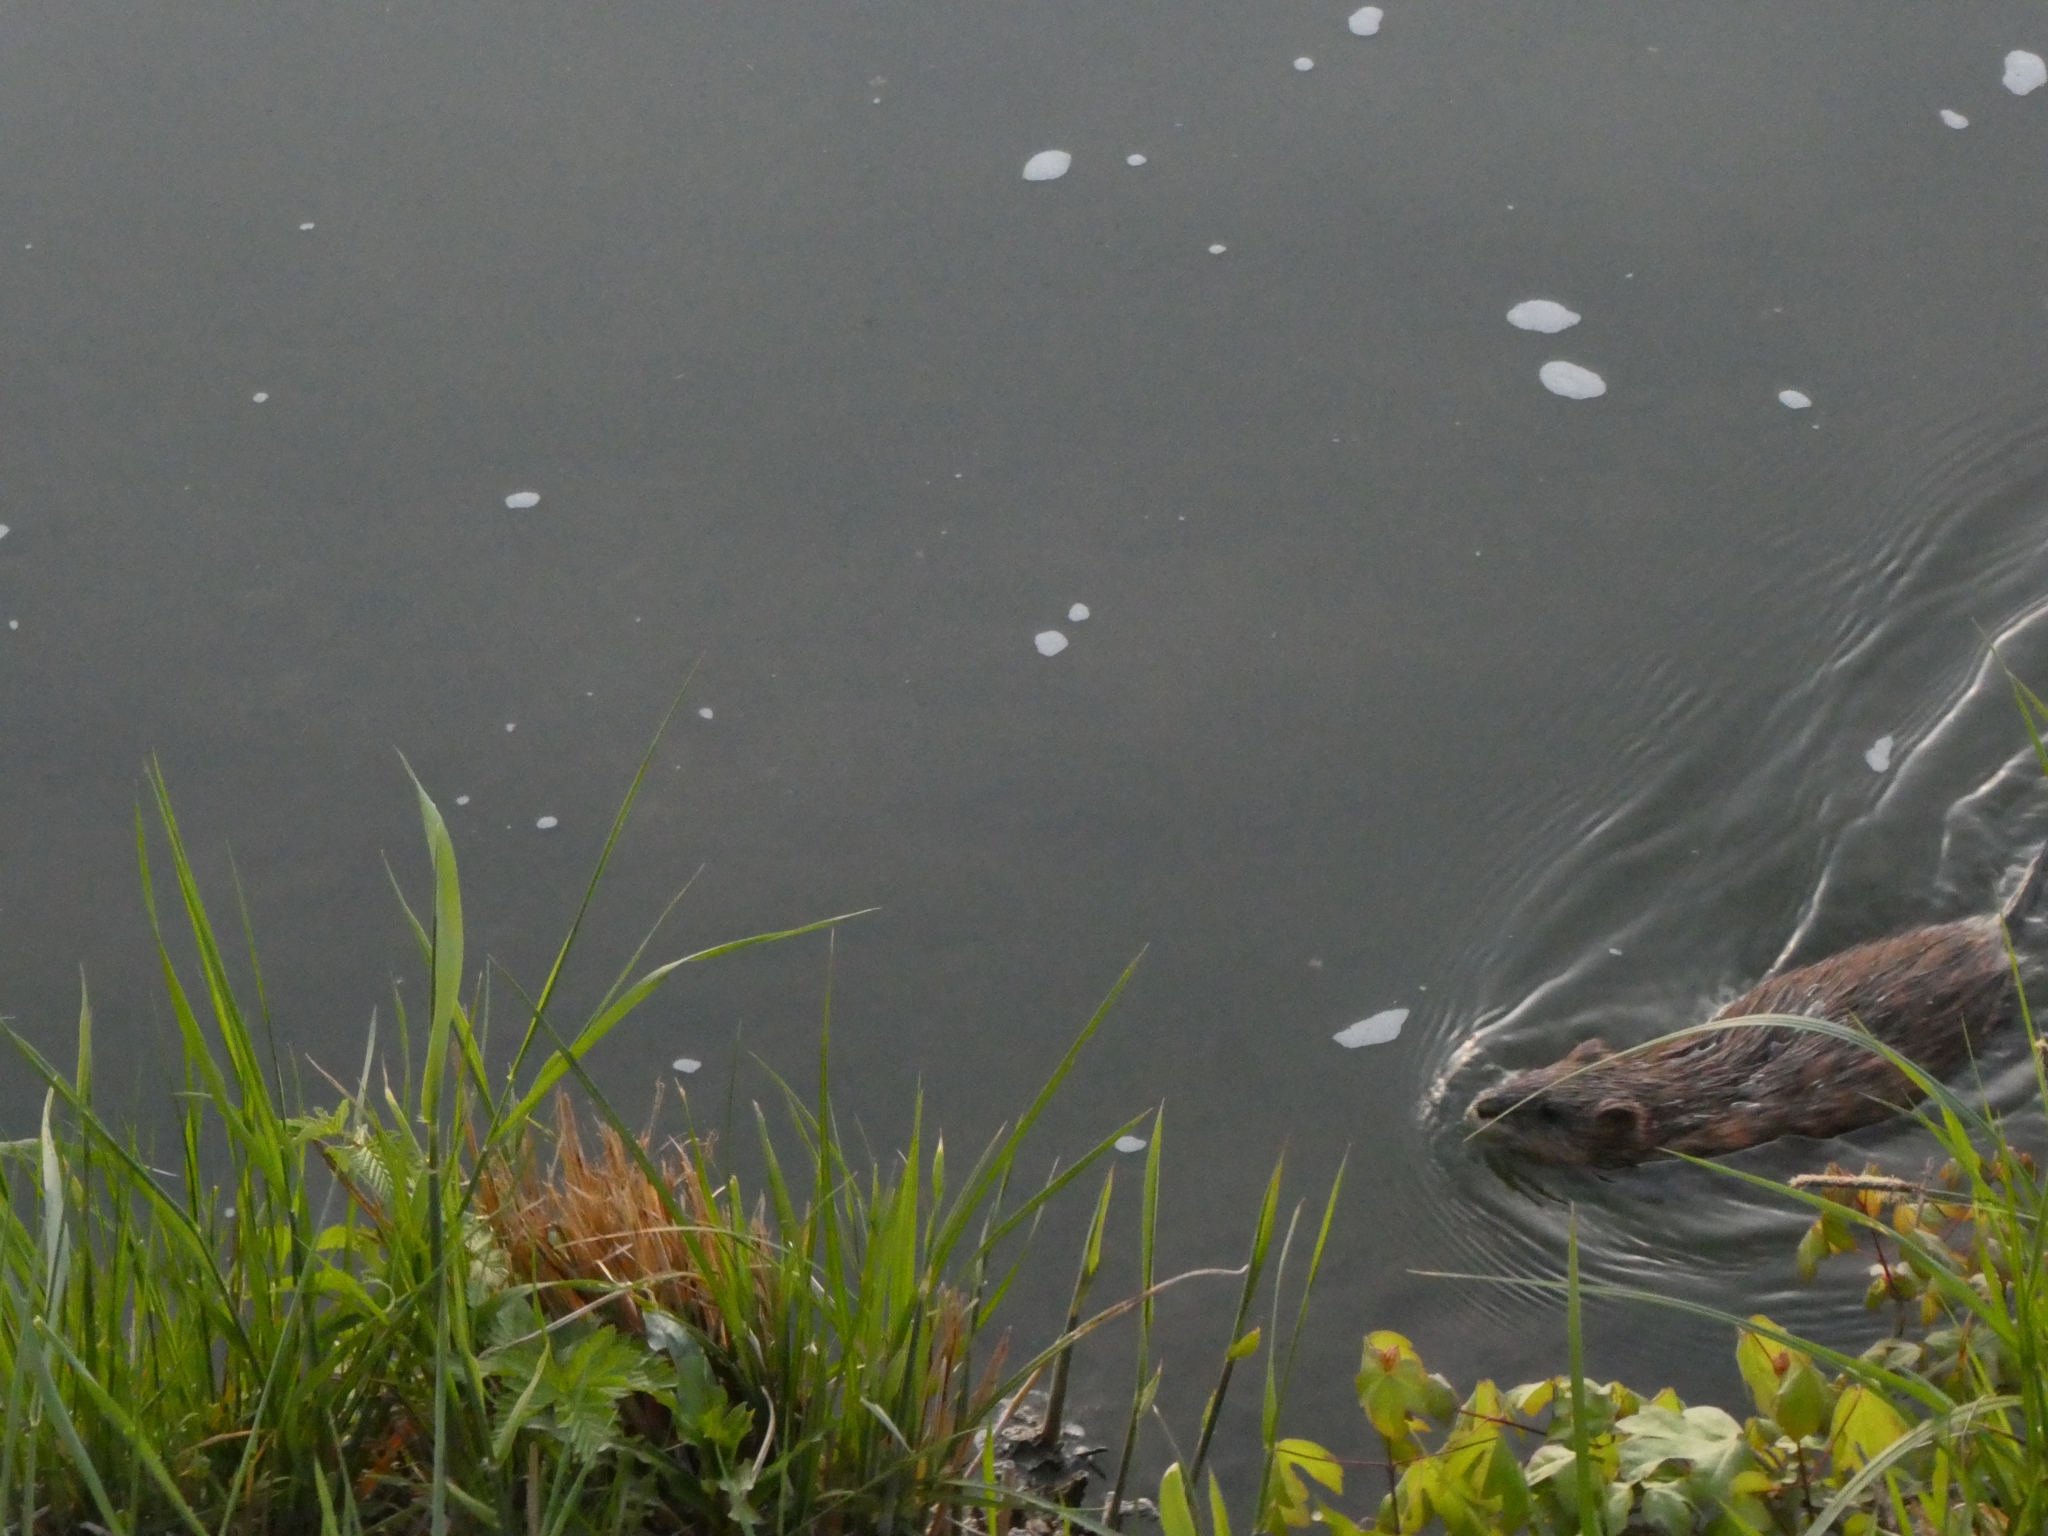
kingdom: Animalia
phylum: Chordata
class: Mammalia
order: Rodentia
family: Cricetidae
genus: Ondatra
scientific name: Ondatra zibethicus
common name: Muskrat
